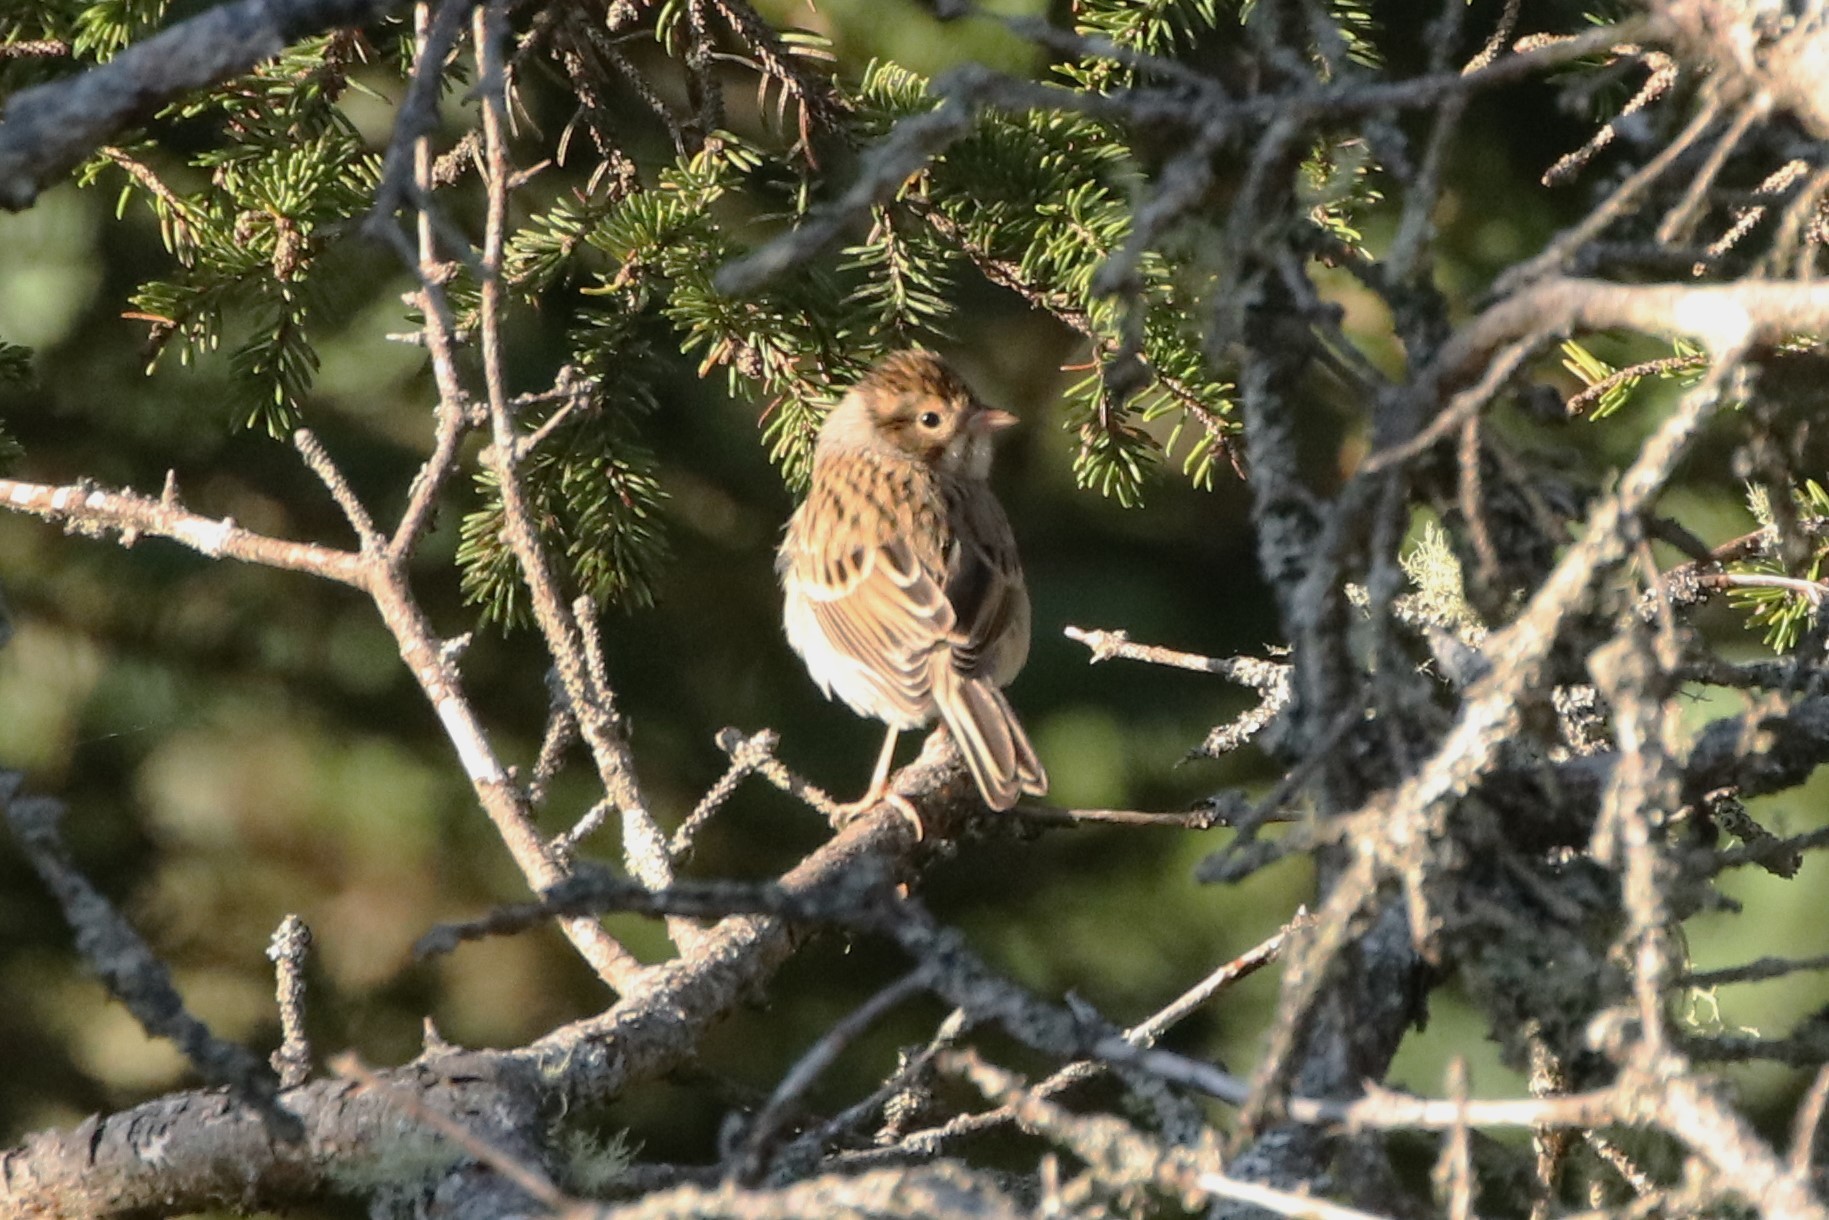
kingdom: Animalia
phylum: Chordata
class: Aves
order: Passeriformes
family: Passerellidae
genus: Spizella
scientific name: Spizella pallida
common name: Clay-colored sparrow
